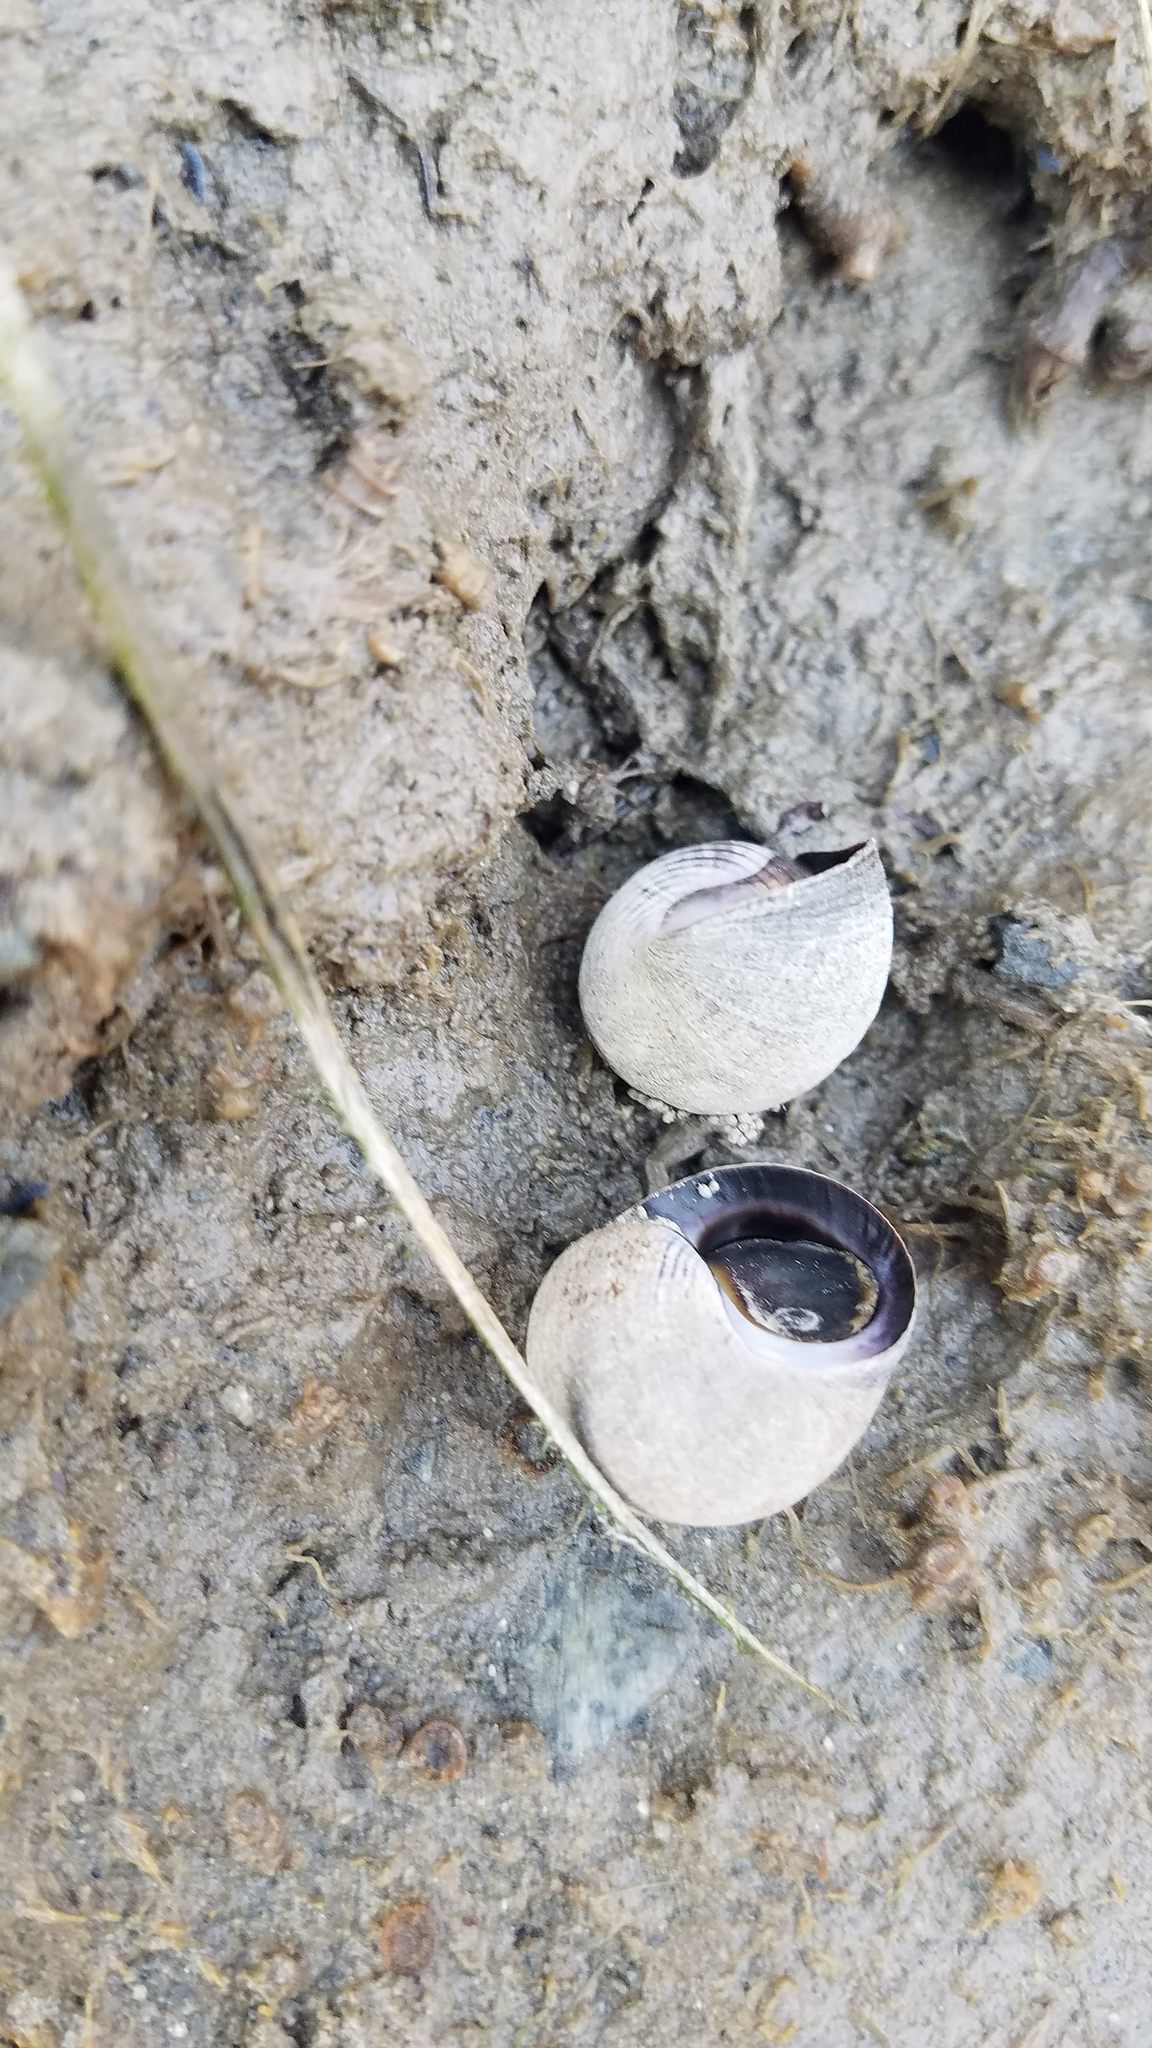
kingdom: Animalia
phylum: Mollusca
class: Gastropoda
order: Littorinimorpha
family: Littorinidae
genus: Littorina
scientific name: Littorina littorea
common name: Common periwinkle
